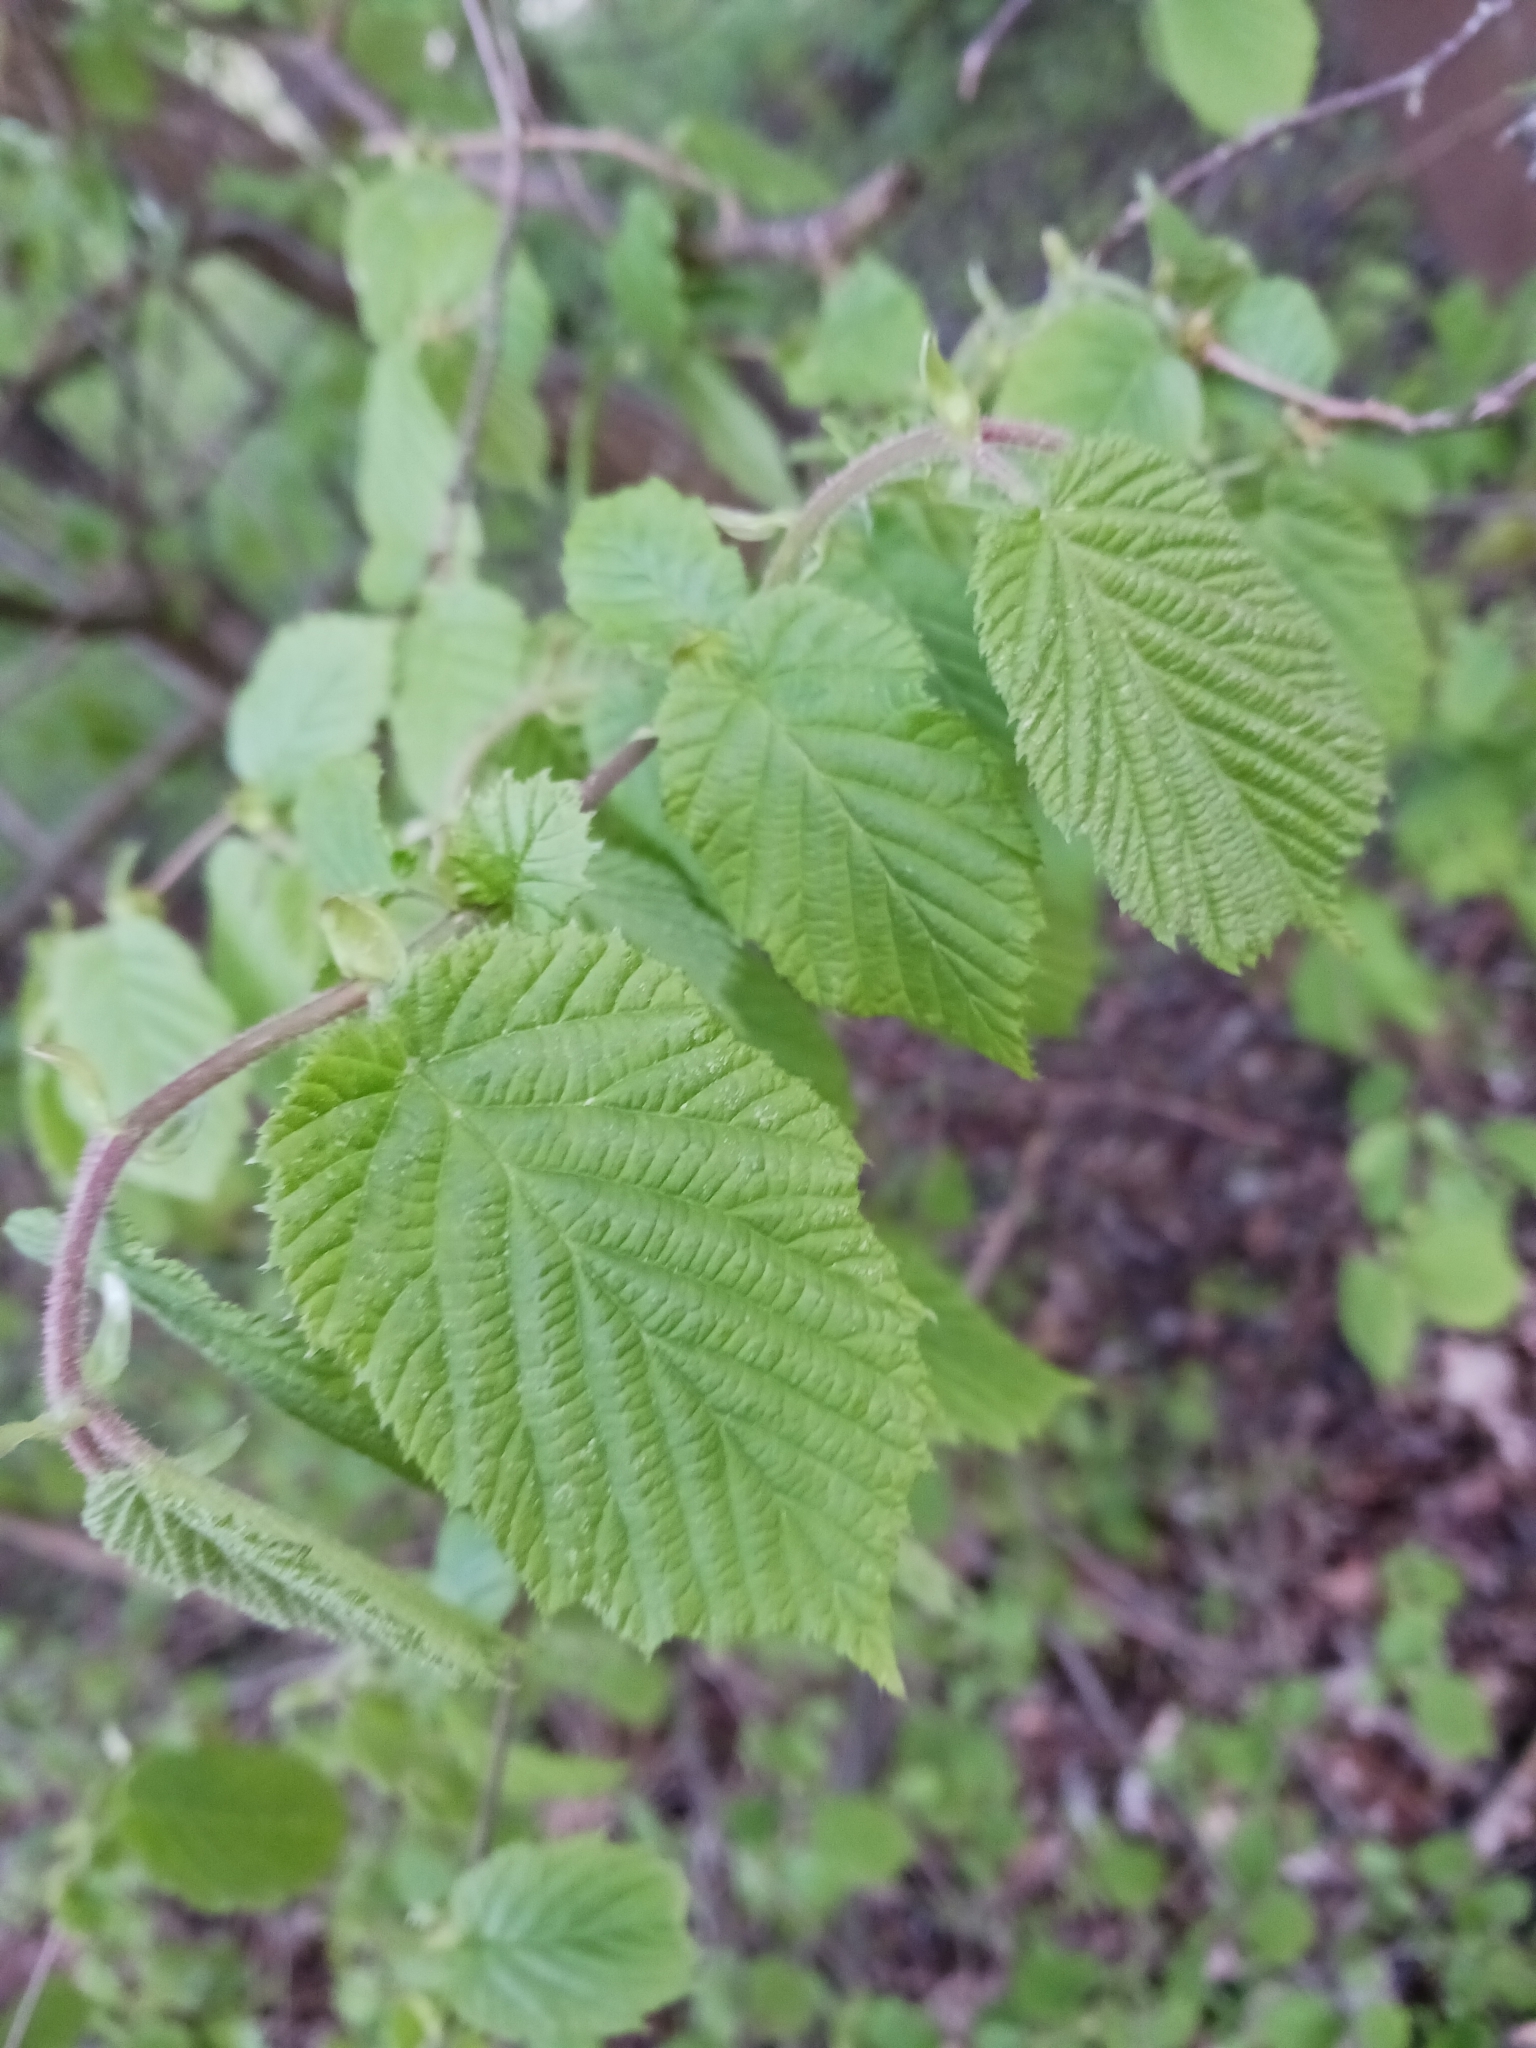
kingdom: Plantae
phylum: Tracheophyta
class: Magnoliopsida
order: Fagales
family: Betulaceae
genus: Corylus
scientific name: Corylus avellana
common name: European hazel
